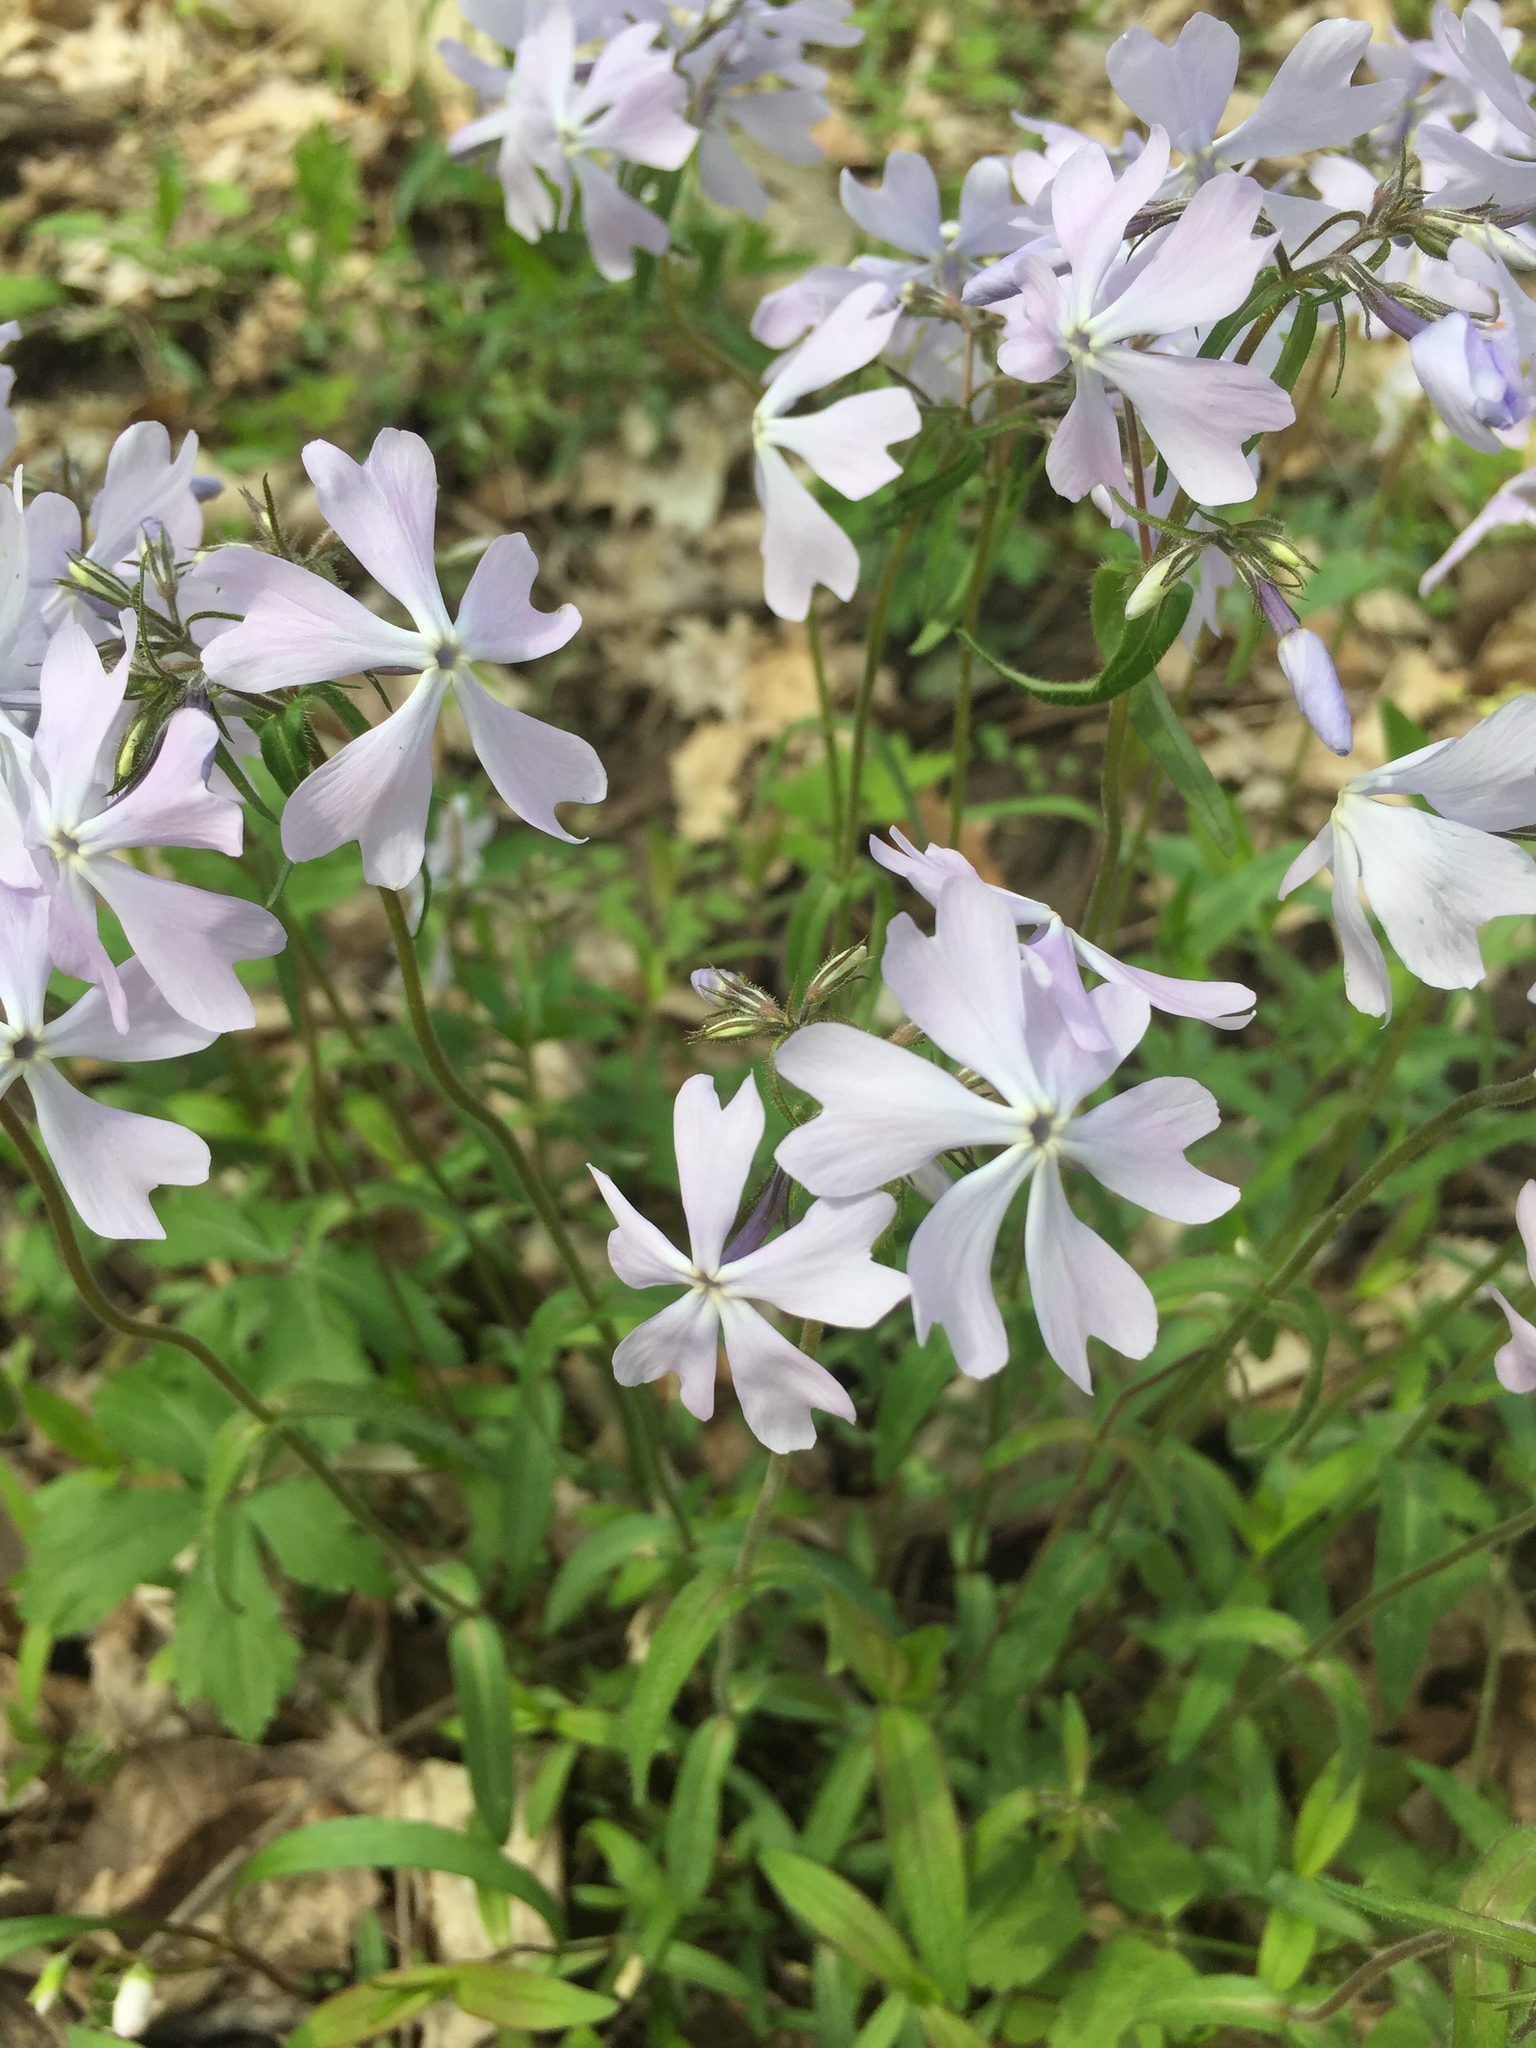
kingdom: Plantae
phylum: Tracheophyta
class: Magnoliopsida
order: Ericales
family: Polemoniaceae
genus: Phlox
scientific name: Phlox divaricata
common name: Blue phlox
